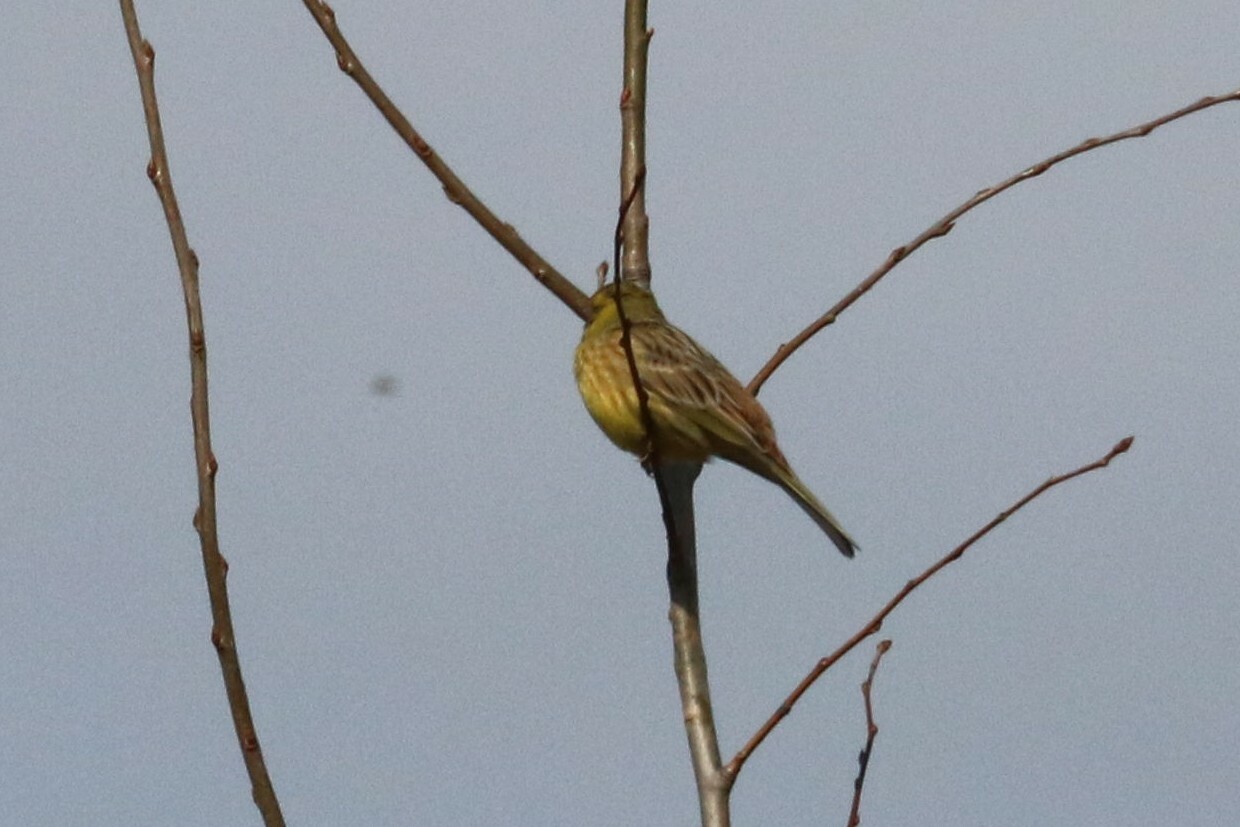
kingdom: Animalia
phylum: Chordata
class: Aves
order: Passeriformes
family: Emberizidae
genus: Emberiza
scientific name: Emberiza citrinella
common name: Yellowhammer
